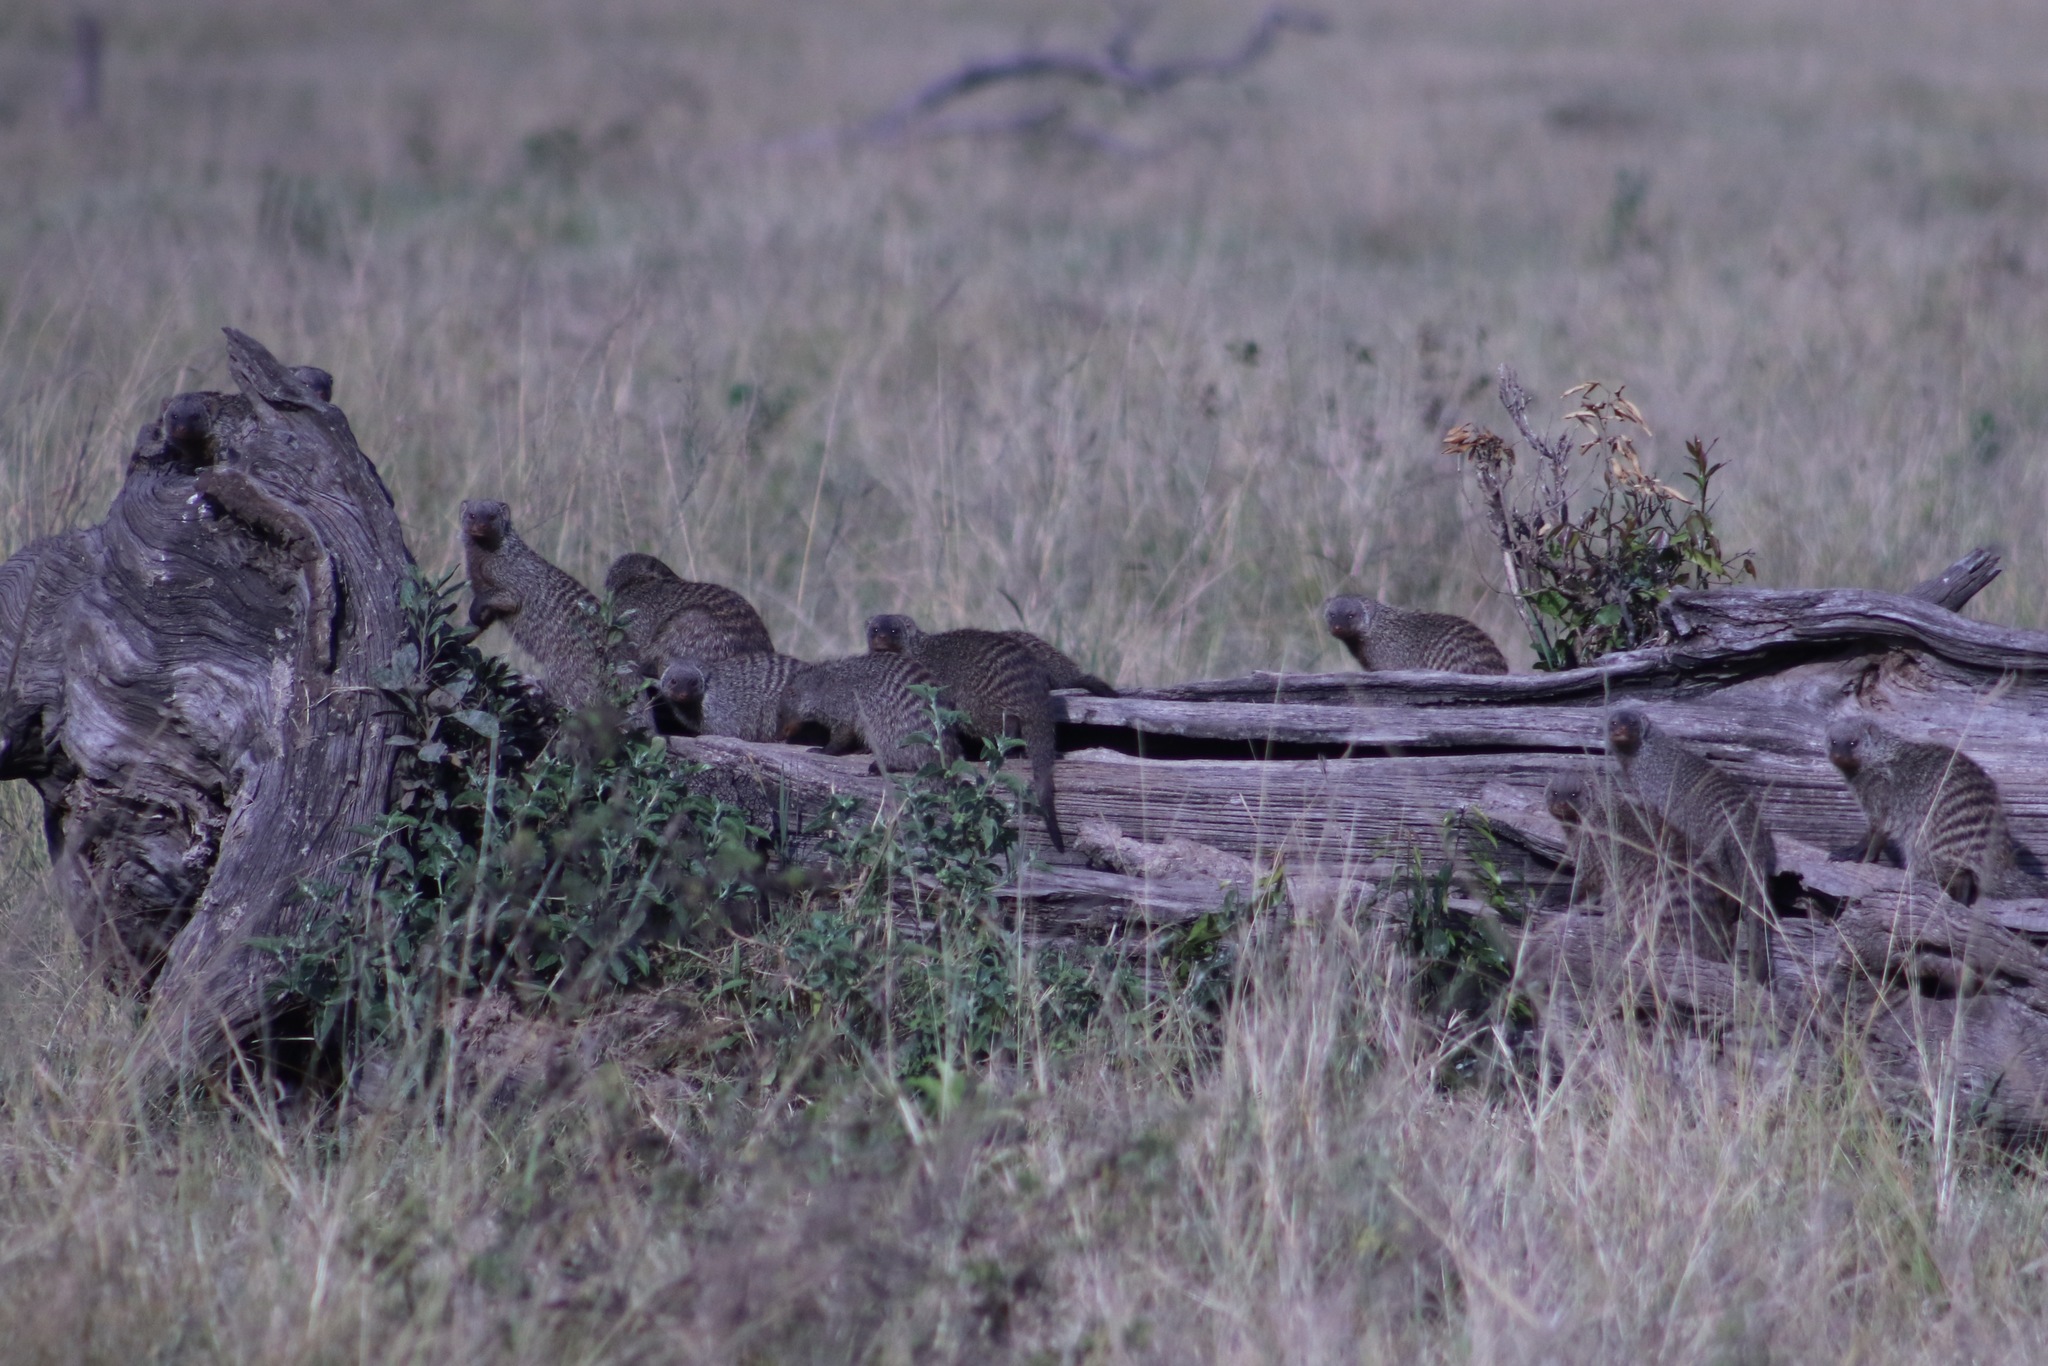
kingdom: Animalia
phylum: Chordata
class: Mammalia
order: Carnivora
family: Herpestidae
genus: Mungos
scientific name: Mungos mungo
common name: Banded mongoose
